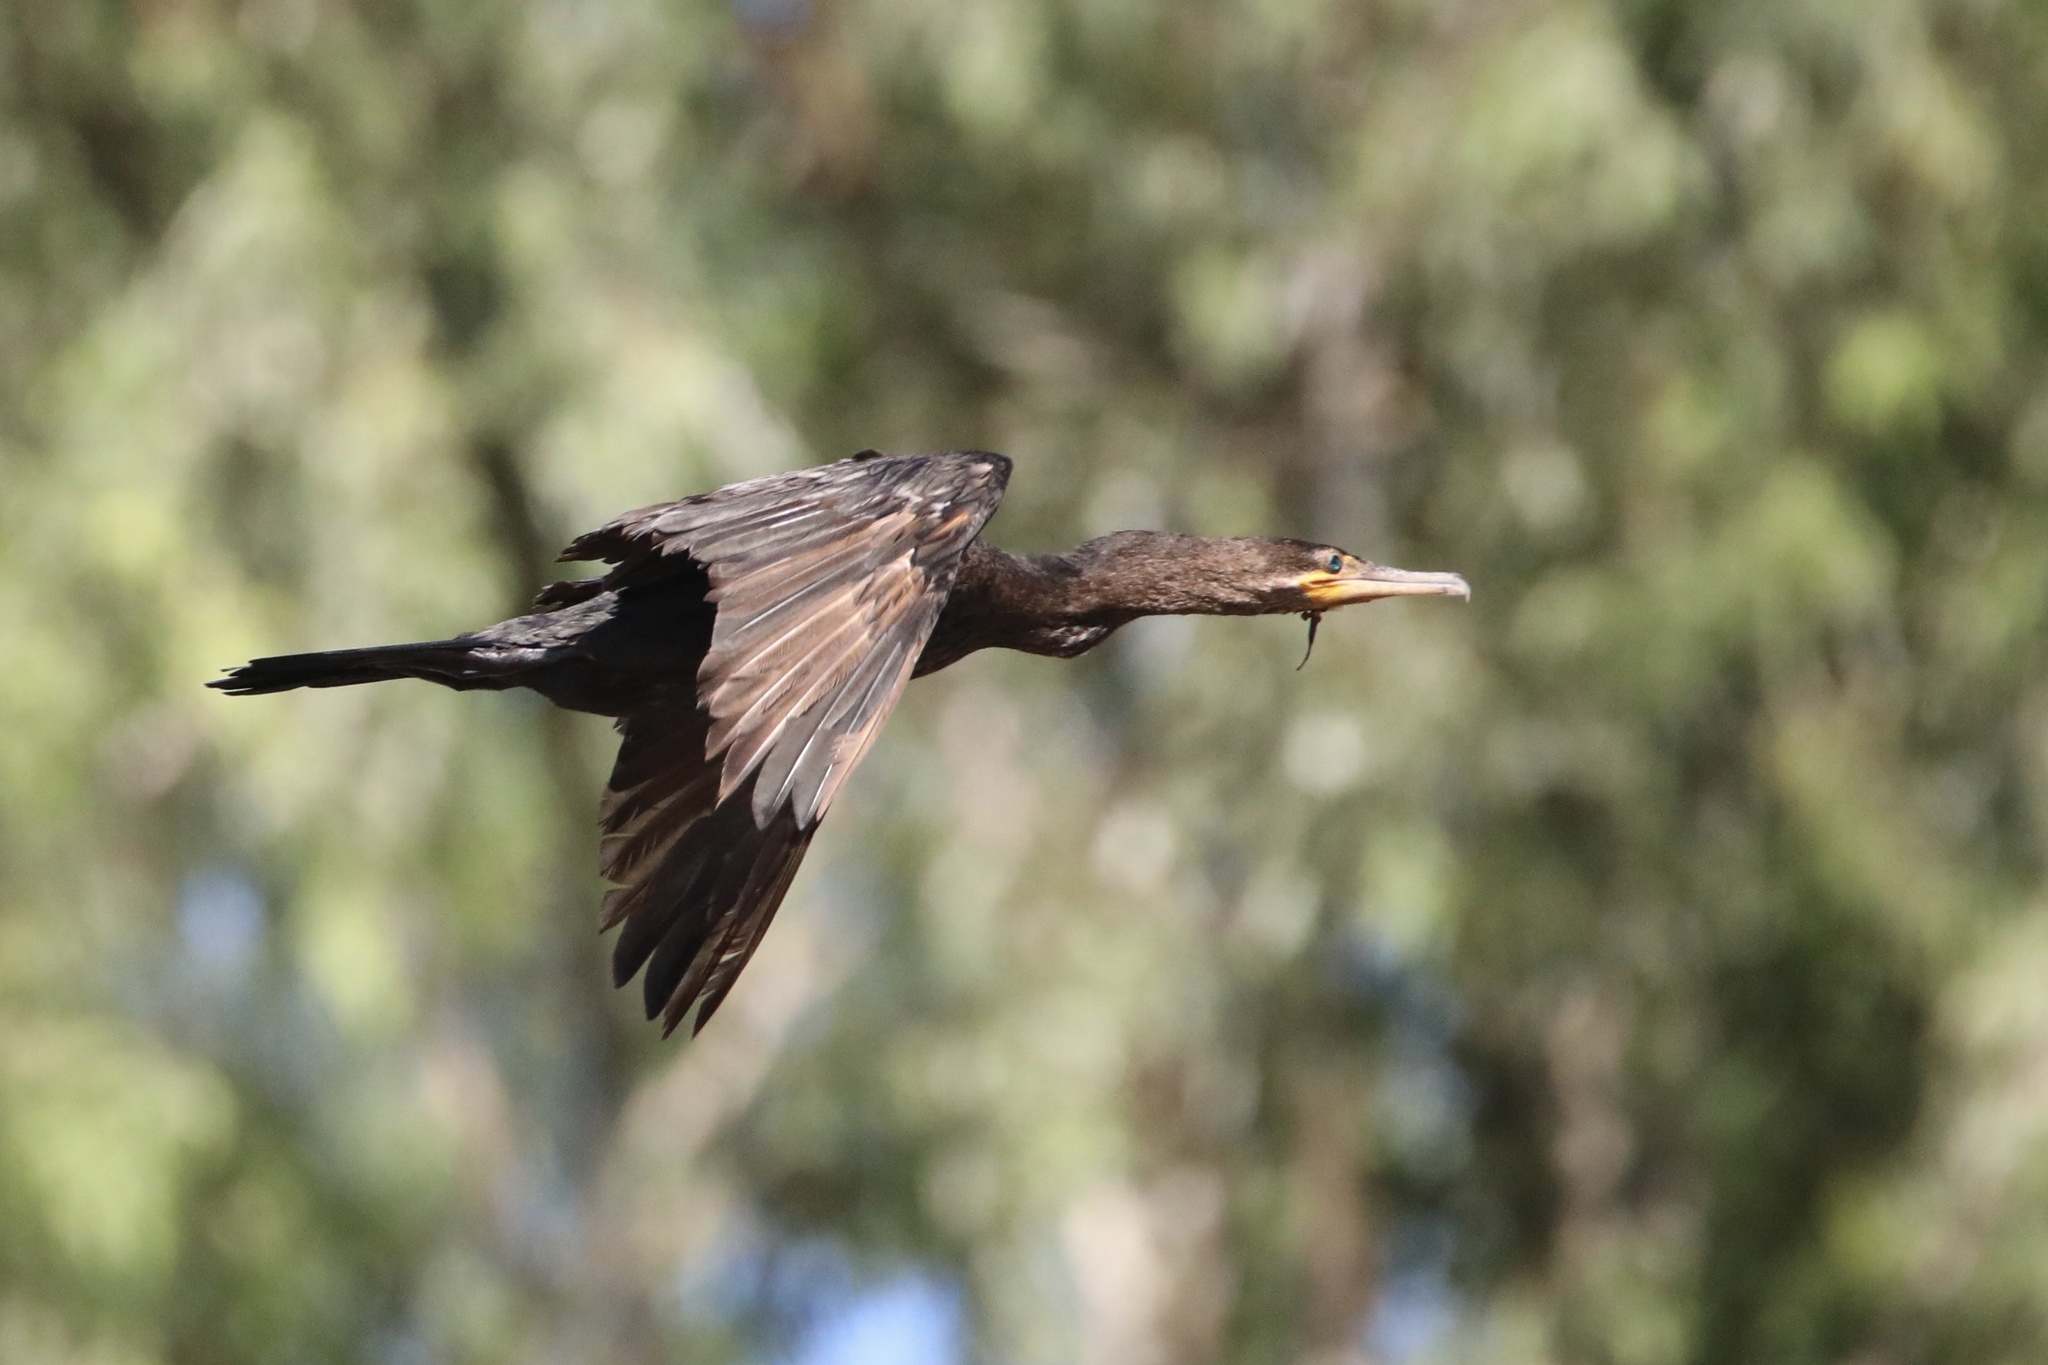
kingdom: Animalia
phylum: Chordata
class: Aves
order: Suliformes
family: Phalacrocoracidae
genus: Phalacrocorax
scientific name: Phalacrocorax brasilianus
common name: Neotropic cormorant
